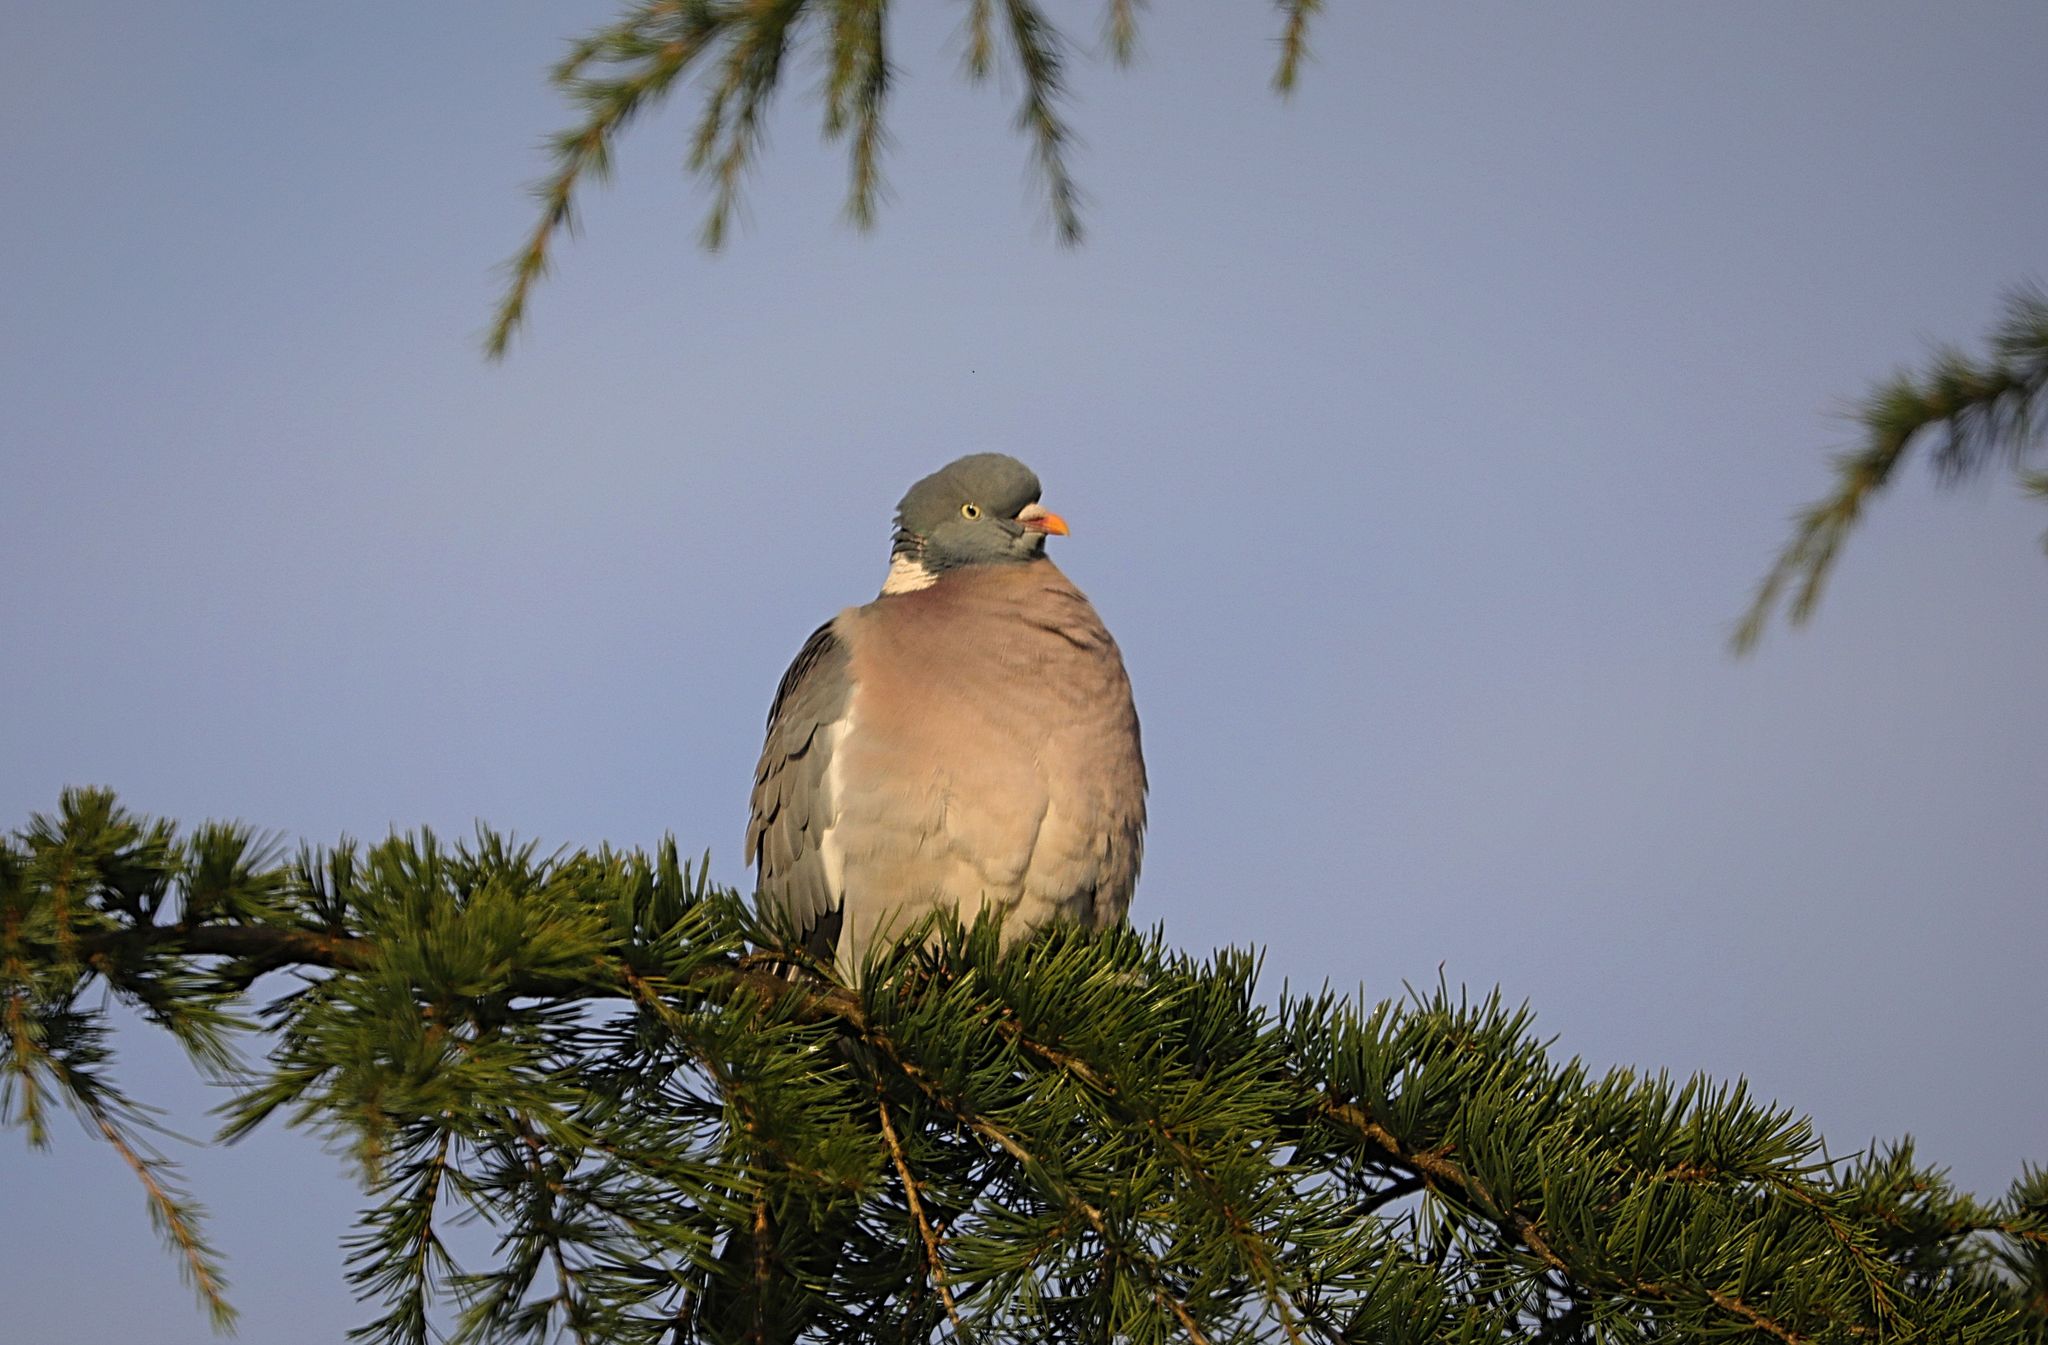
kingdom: Animalia
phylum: Chordata
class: Aves
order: Columbiformes
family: Columbidae
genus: Columba
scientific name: Columba palumbus
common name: Common wood pigeon
